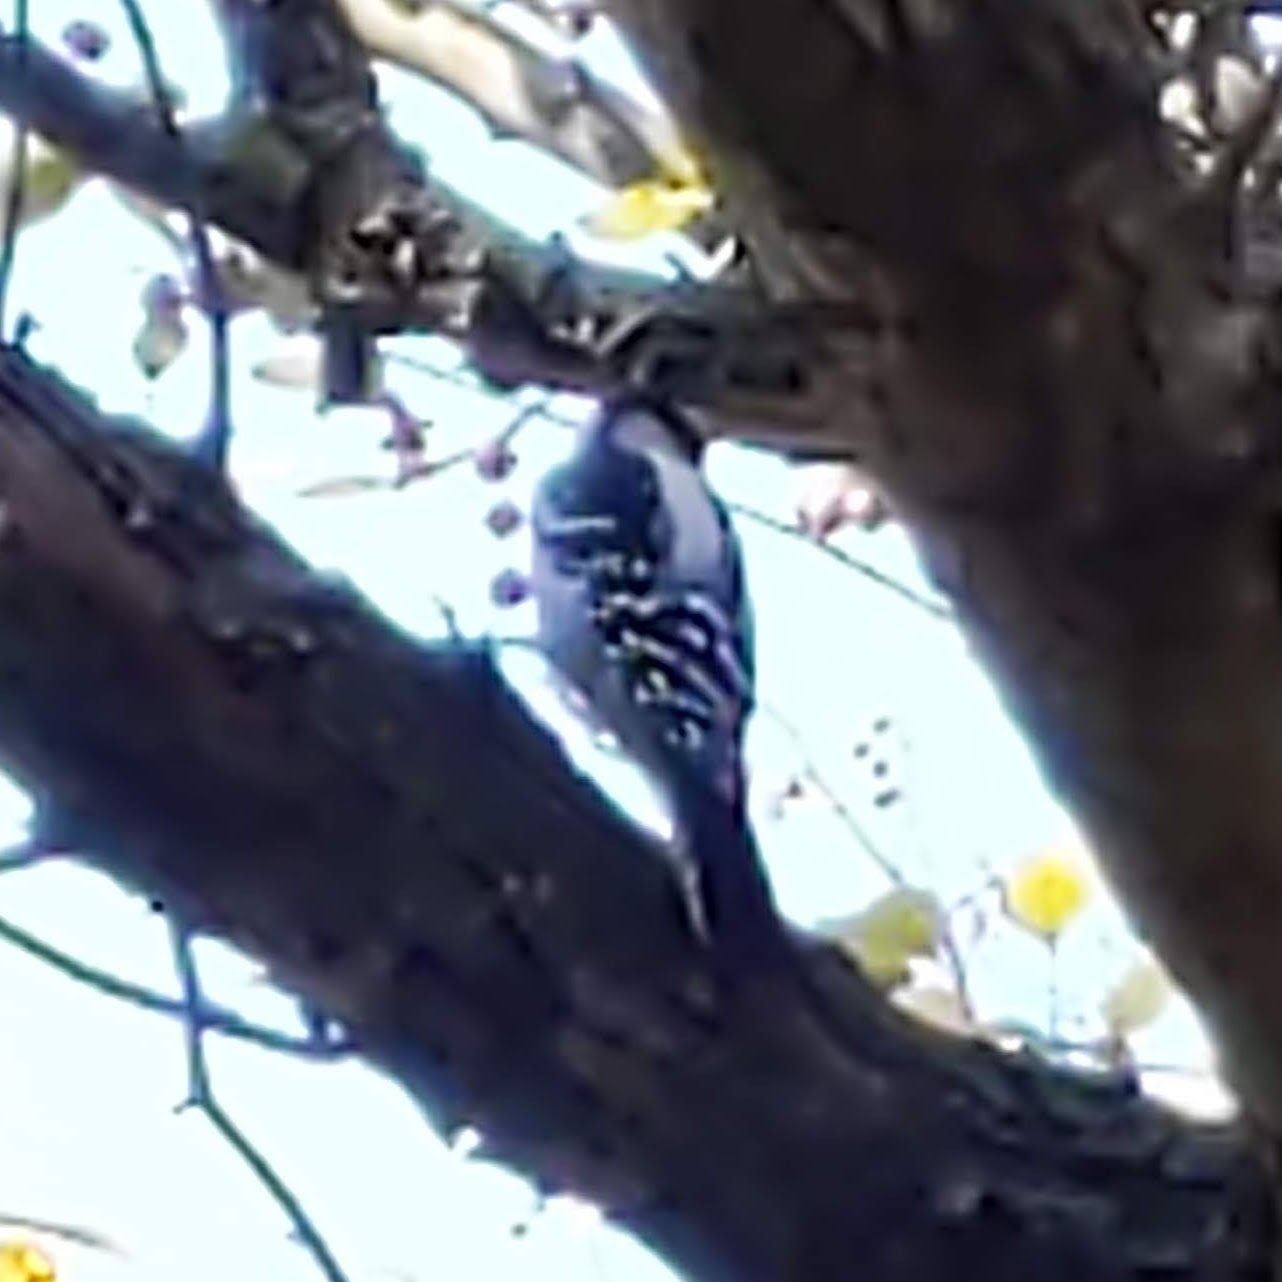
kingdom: Animalia
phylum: Chordata
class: Aves
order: Piciformes
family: Picidae
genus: Dryobates
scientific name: Dryobates pubescens
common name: Downy woodpecker
